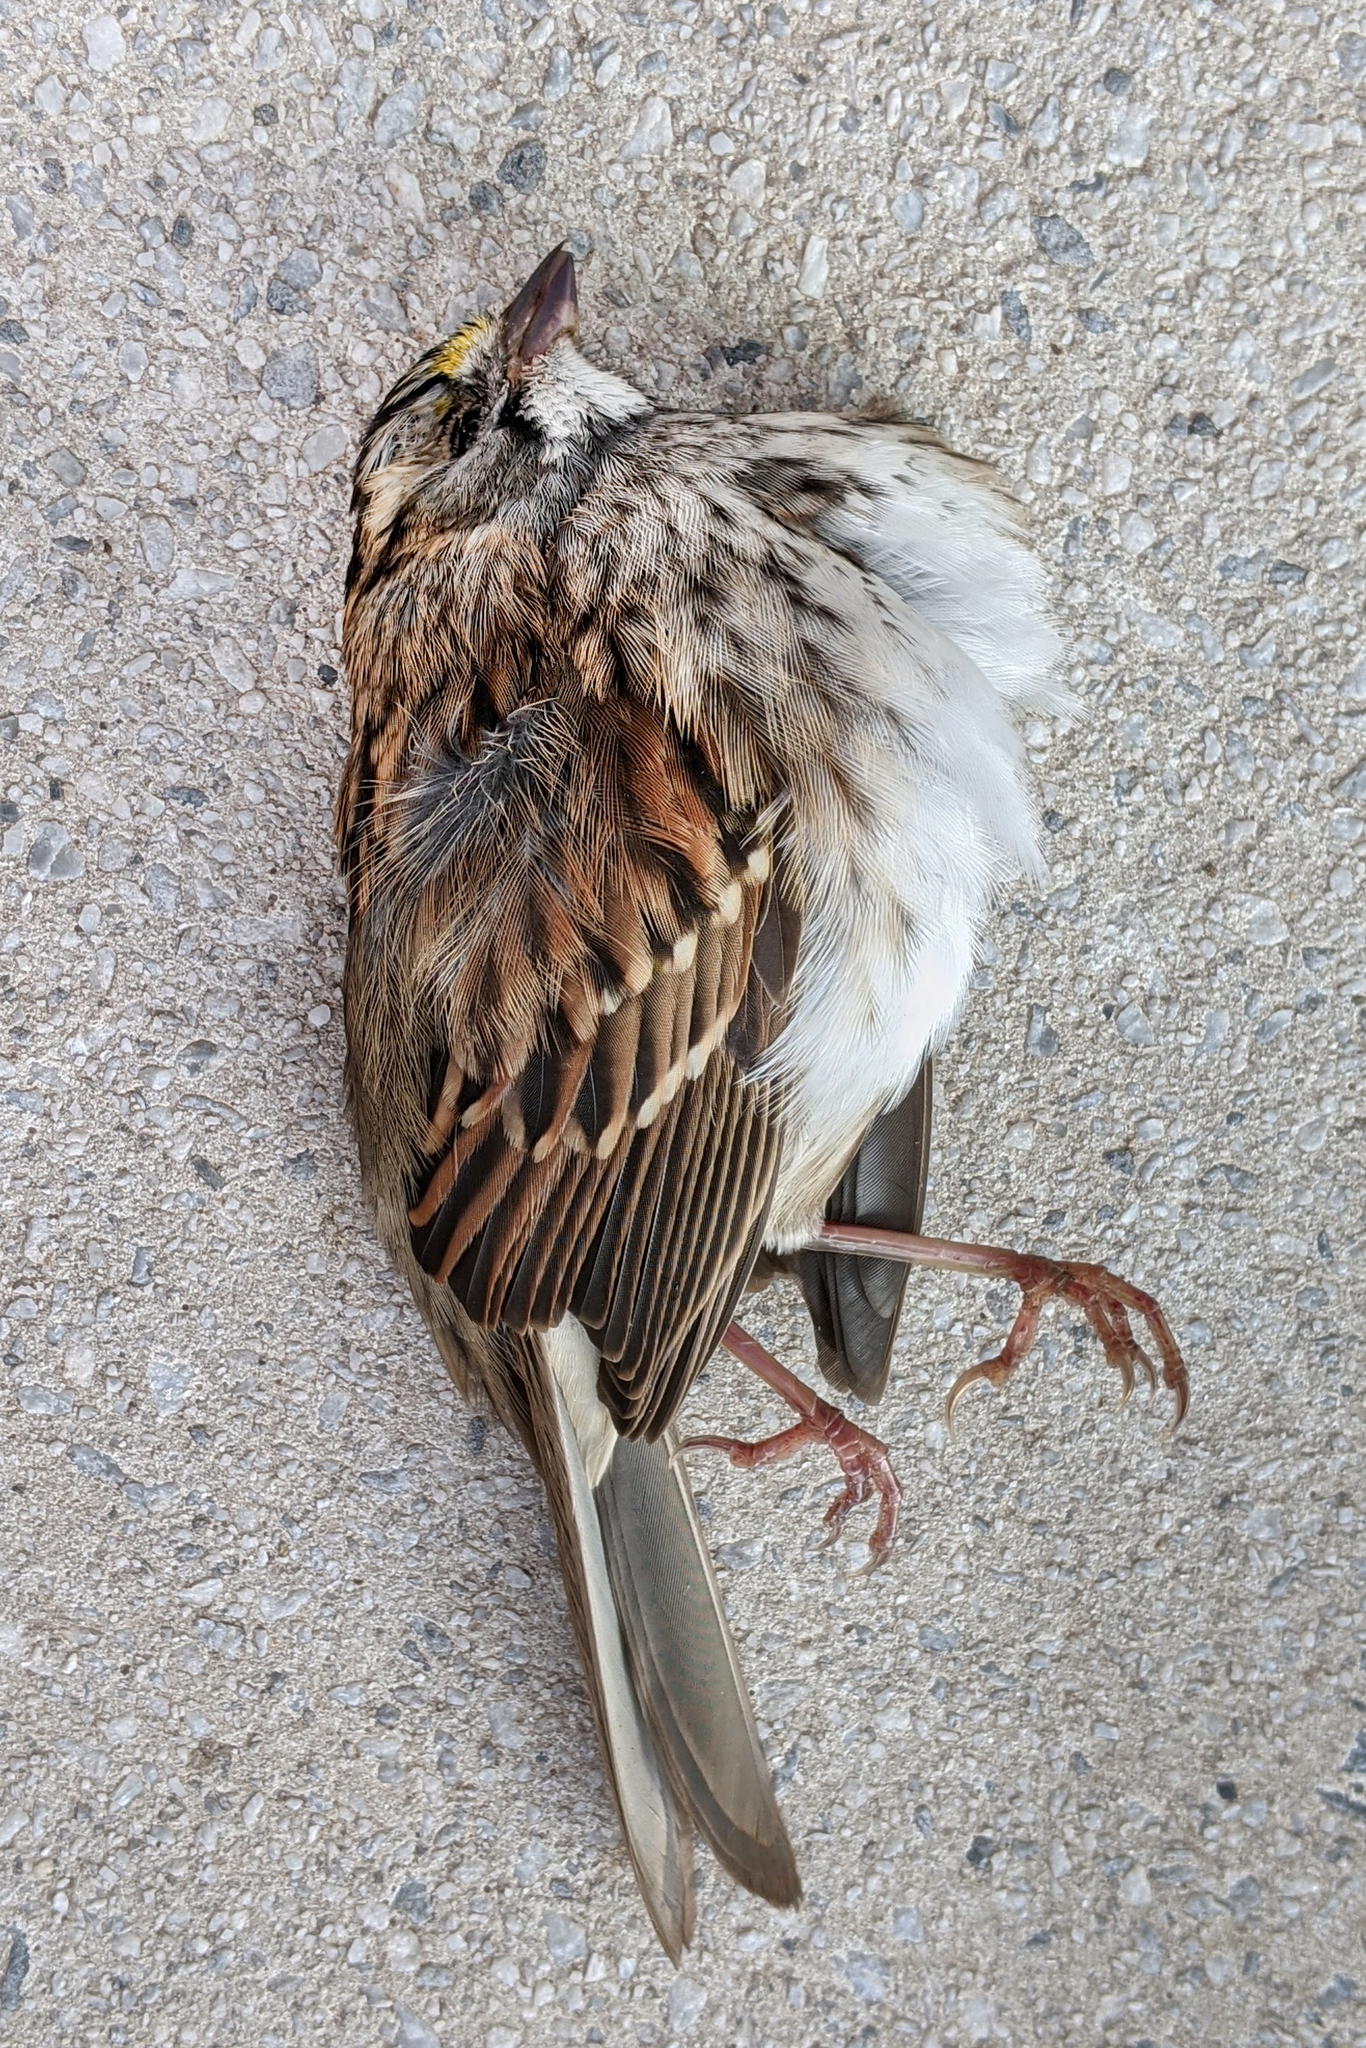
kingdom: Animalia
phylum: Chordata
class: Aves
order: Passeriformes
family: Passerellidae
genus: Zonotrichia
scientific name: Zonotrichia albicollis
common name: White-throated sparrow
